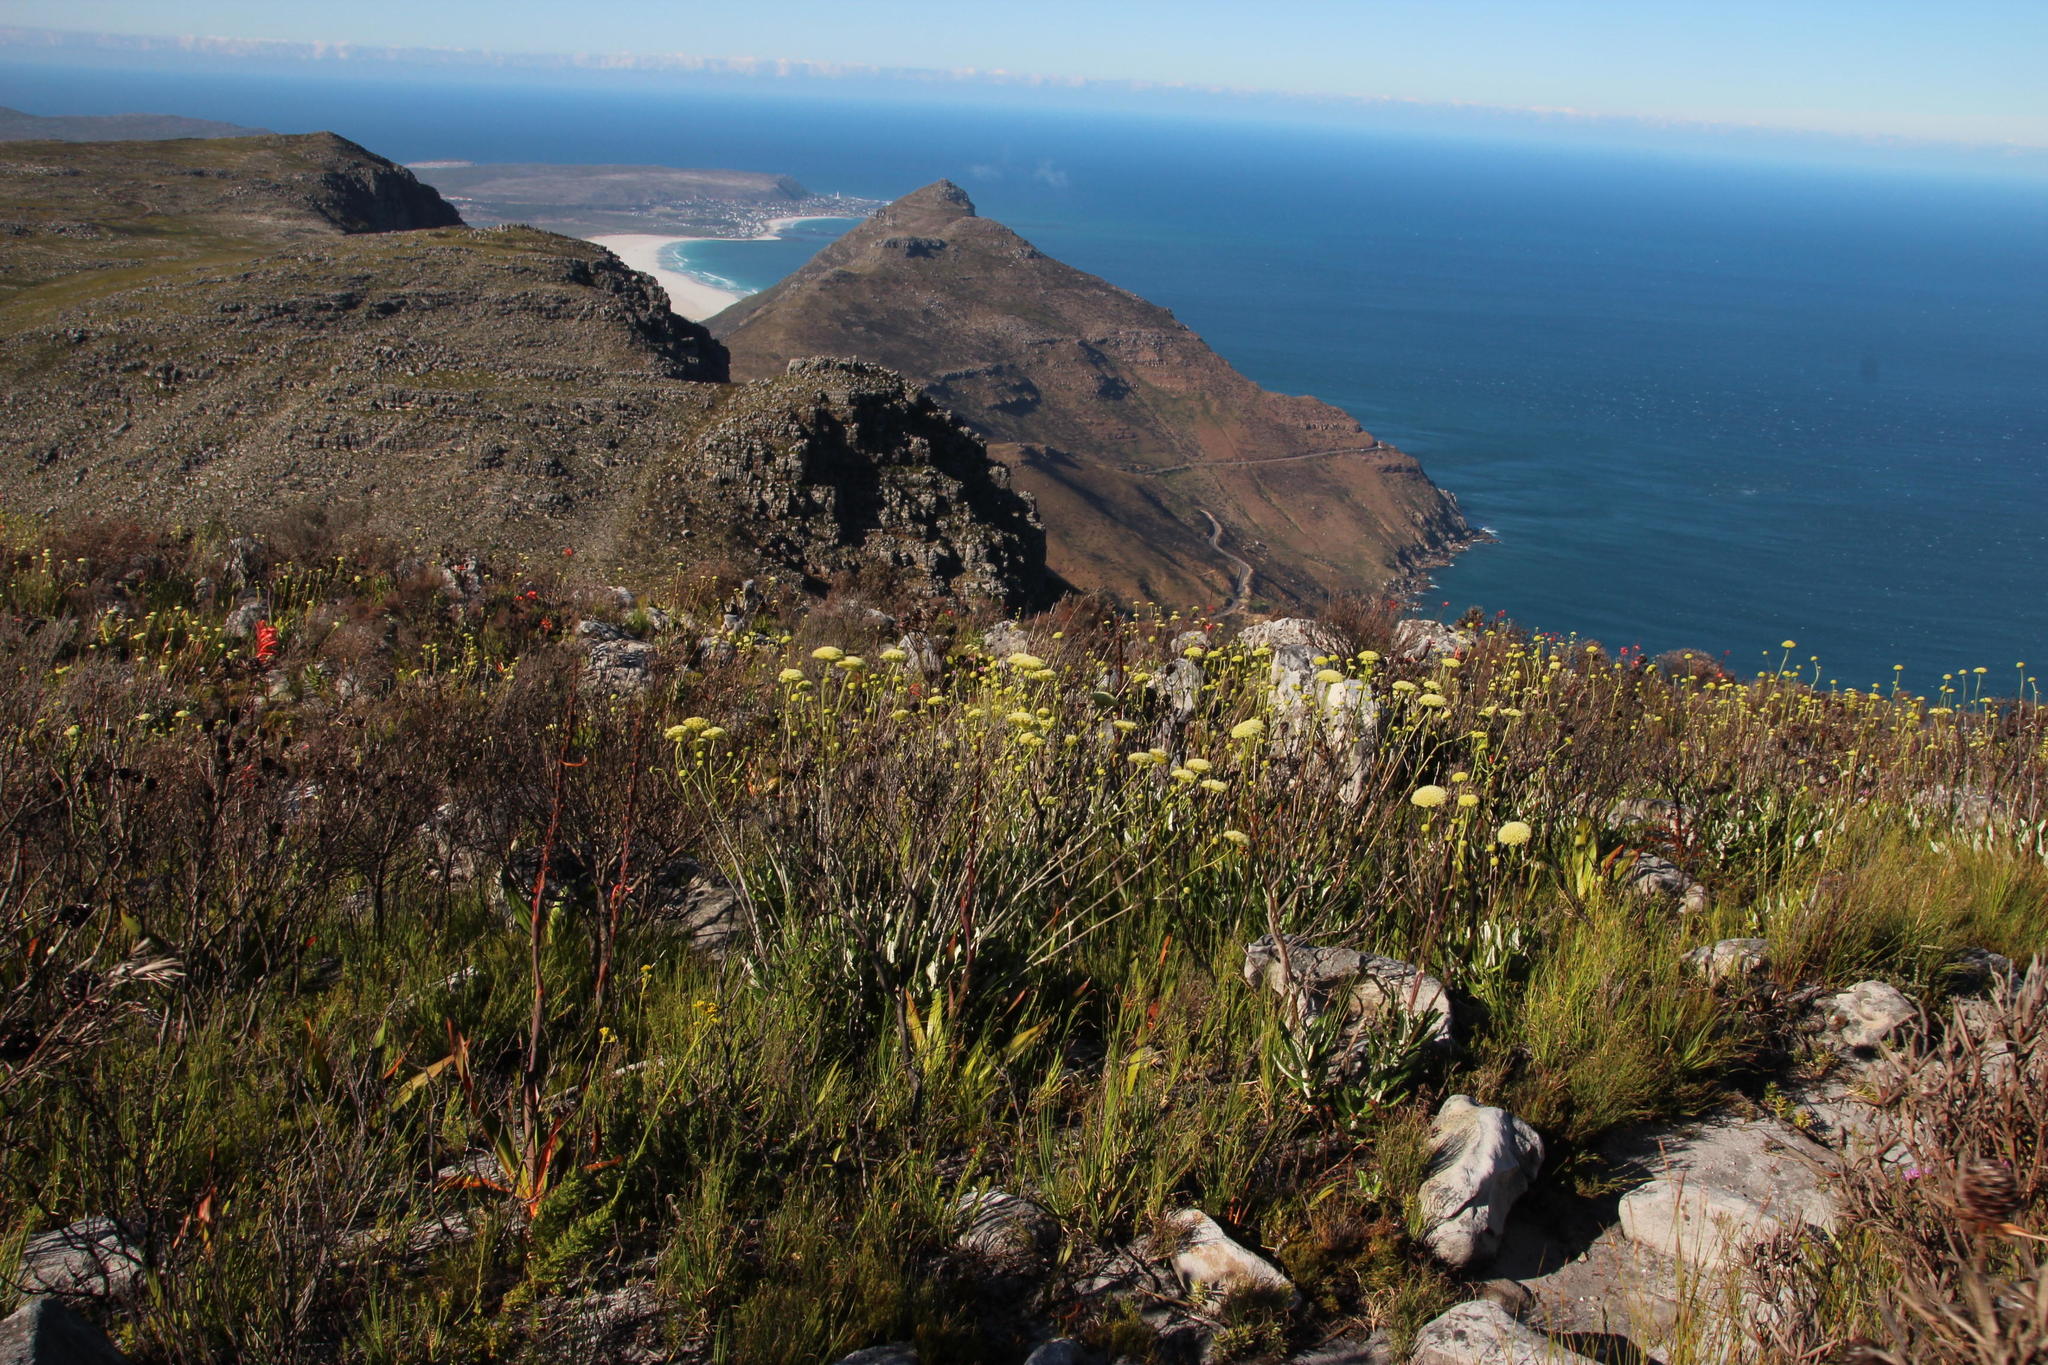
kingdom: Plantae
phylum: Tracheophyta
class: Magnoliopsida
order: Apiales
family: Apiaceae
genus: Hermas
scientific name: Hermas villosa
